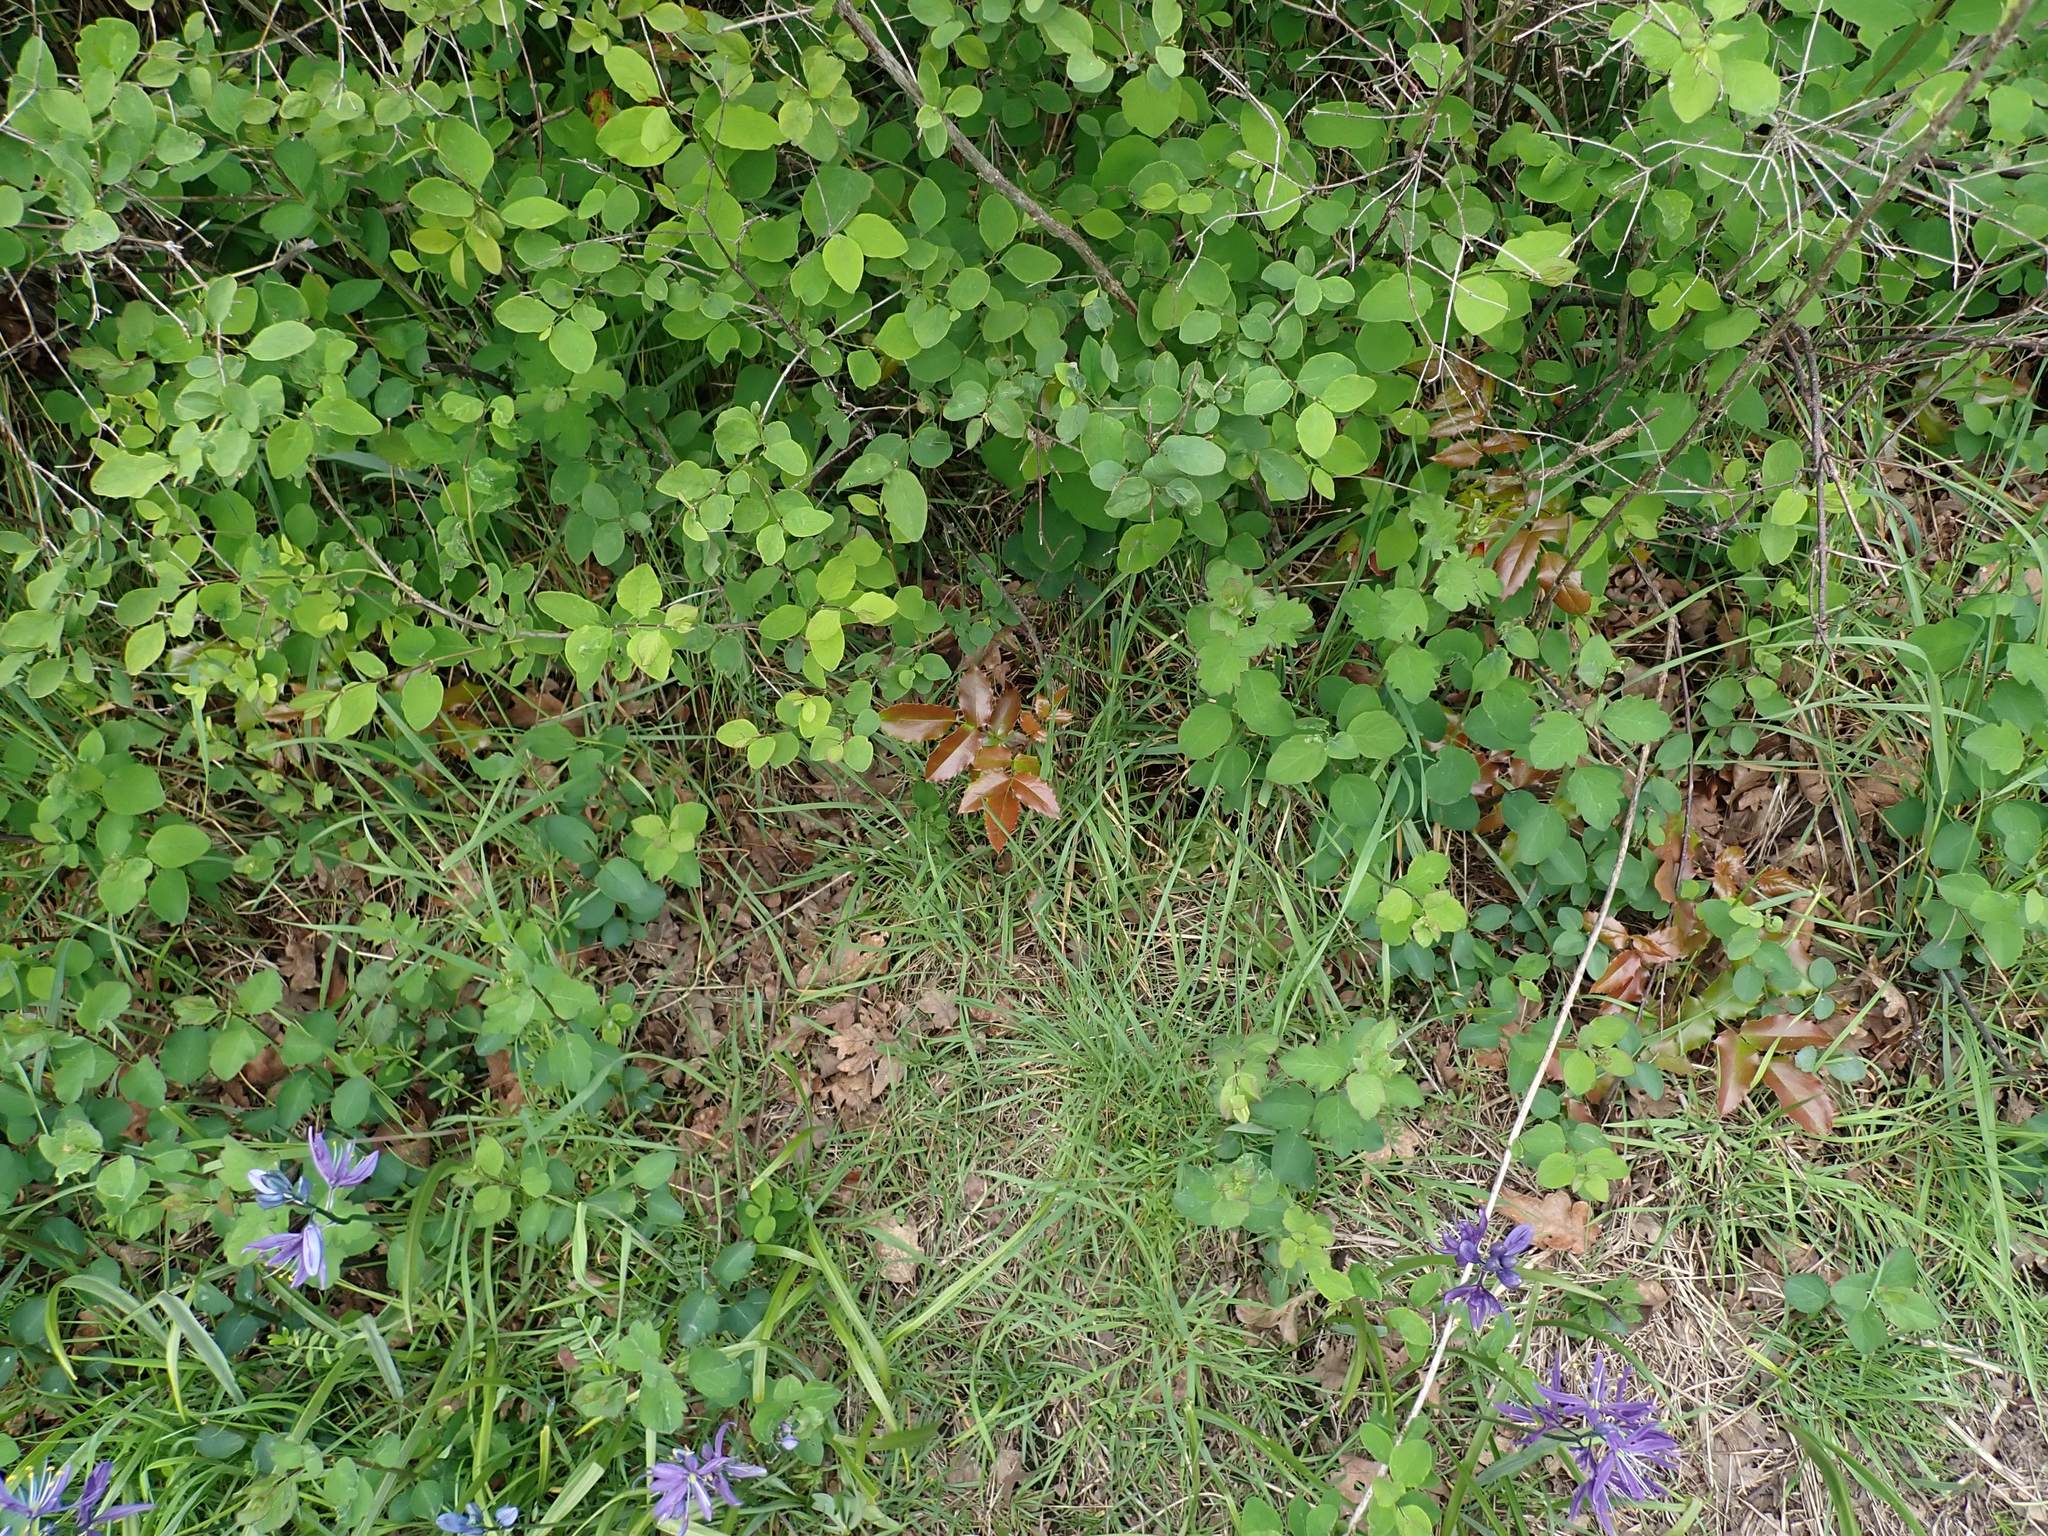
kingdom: Plantae
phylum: Tracheophyta
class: Magnoliopsida
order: Ranunculales
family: Berberidaceae
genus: Mahonia
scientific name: Mahonia aquifolium
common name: Oregon-grape
